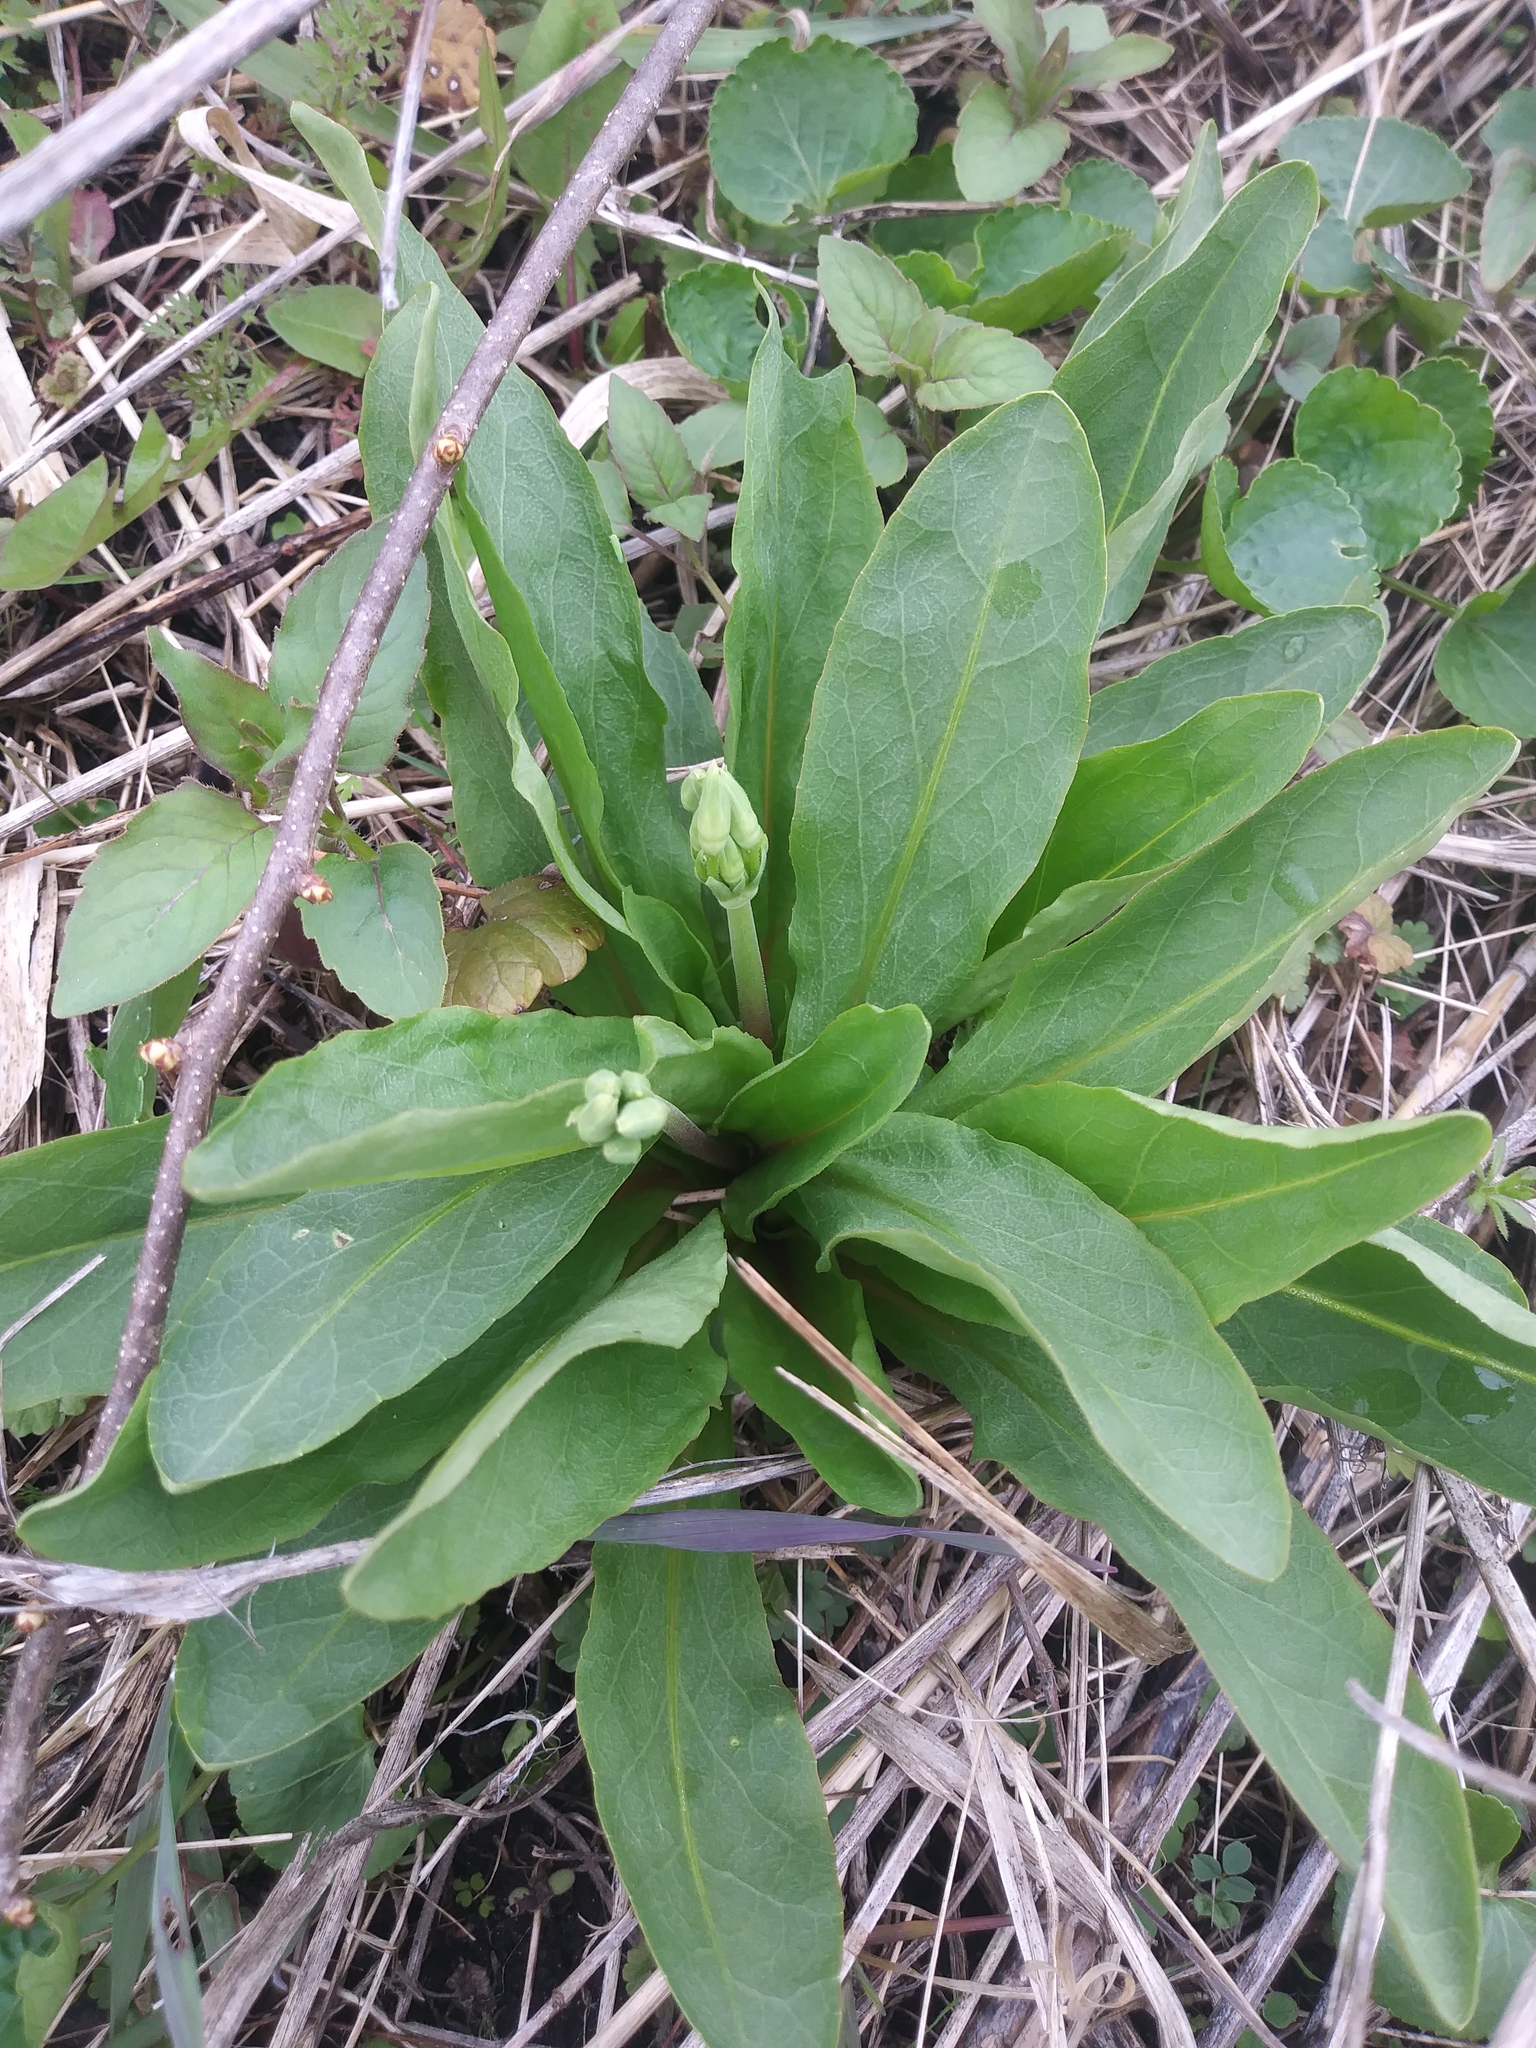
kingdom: Plantae
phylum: Tracheophyta
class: Magnoliopsida
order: Ericales
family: Primulaceae
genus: Dodecatheon
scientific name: Dodecatheon meadia
